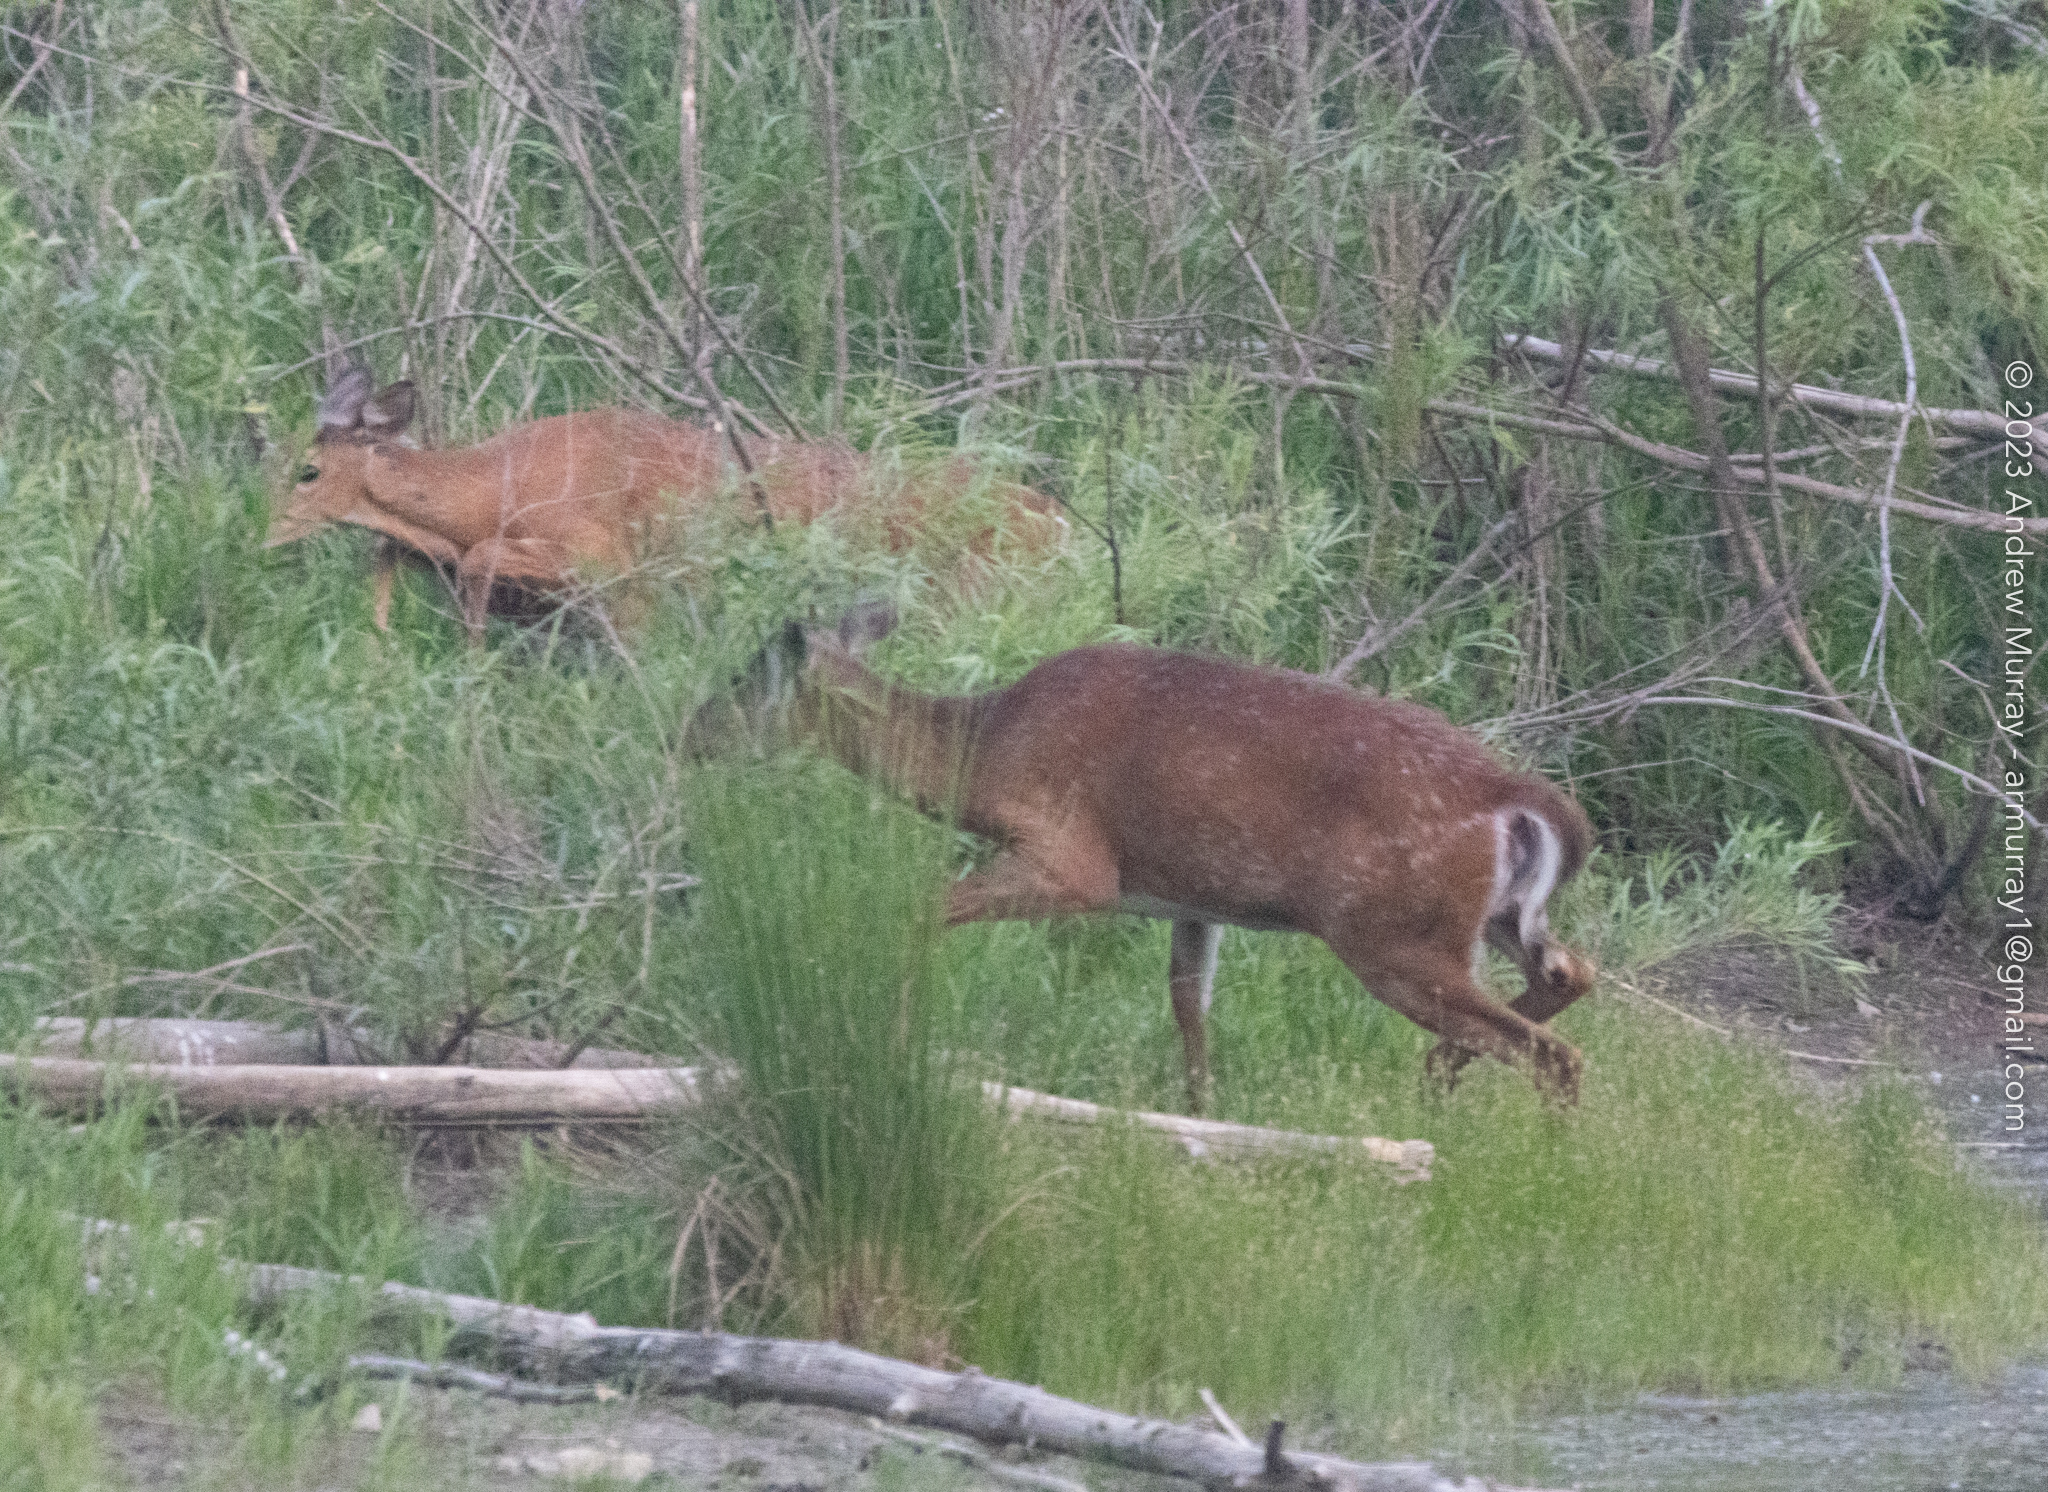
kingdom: Animalia
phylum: Chordata
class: Mammalia
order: Artiodactyla
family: Cervidae
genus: Odocoileus
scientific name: Odocoileus virginianus
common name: White-tailed deer
